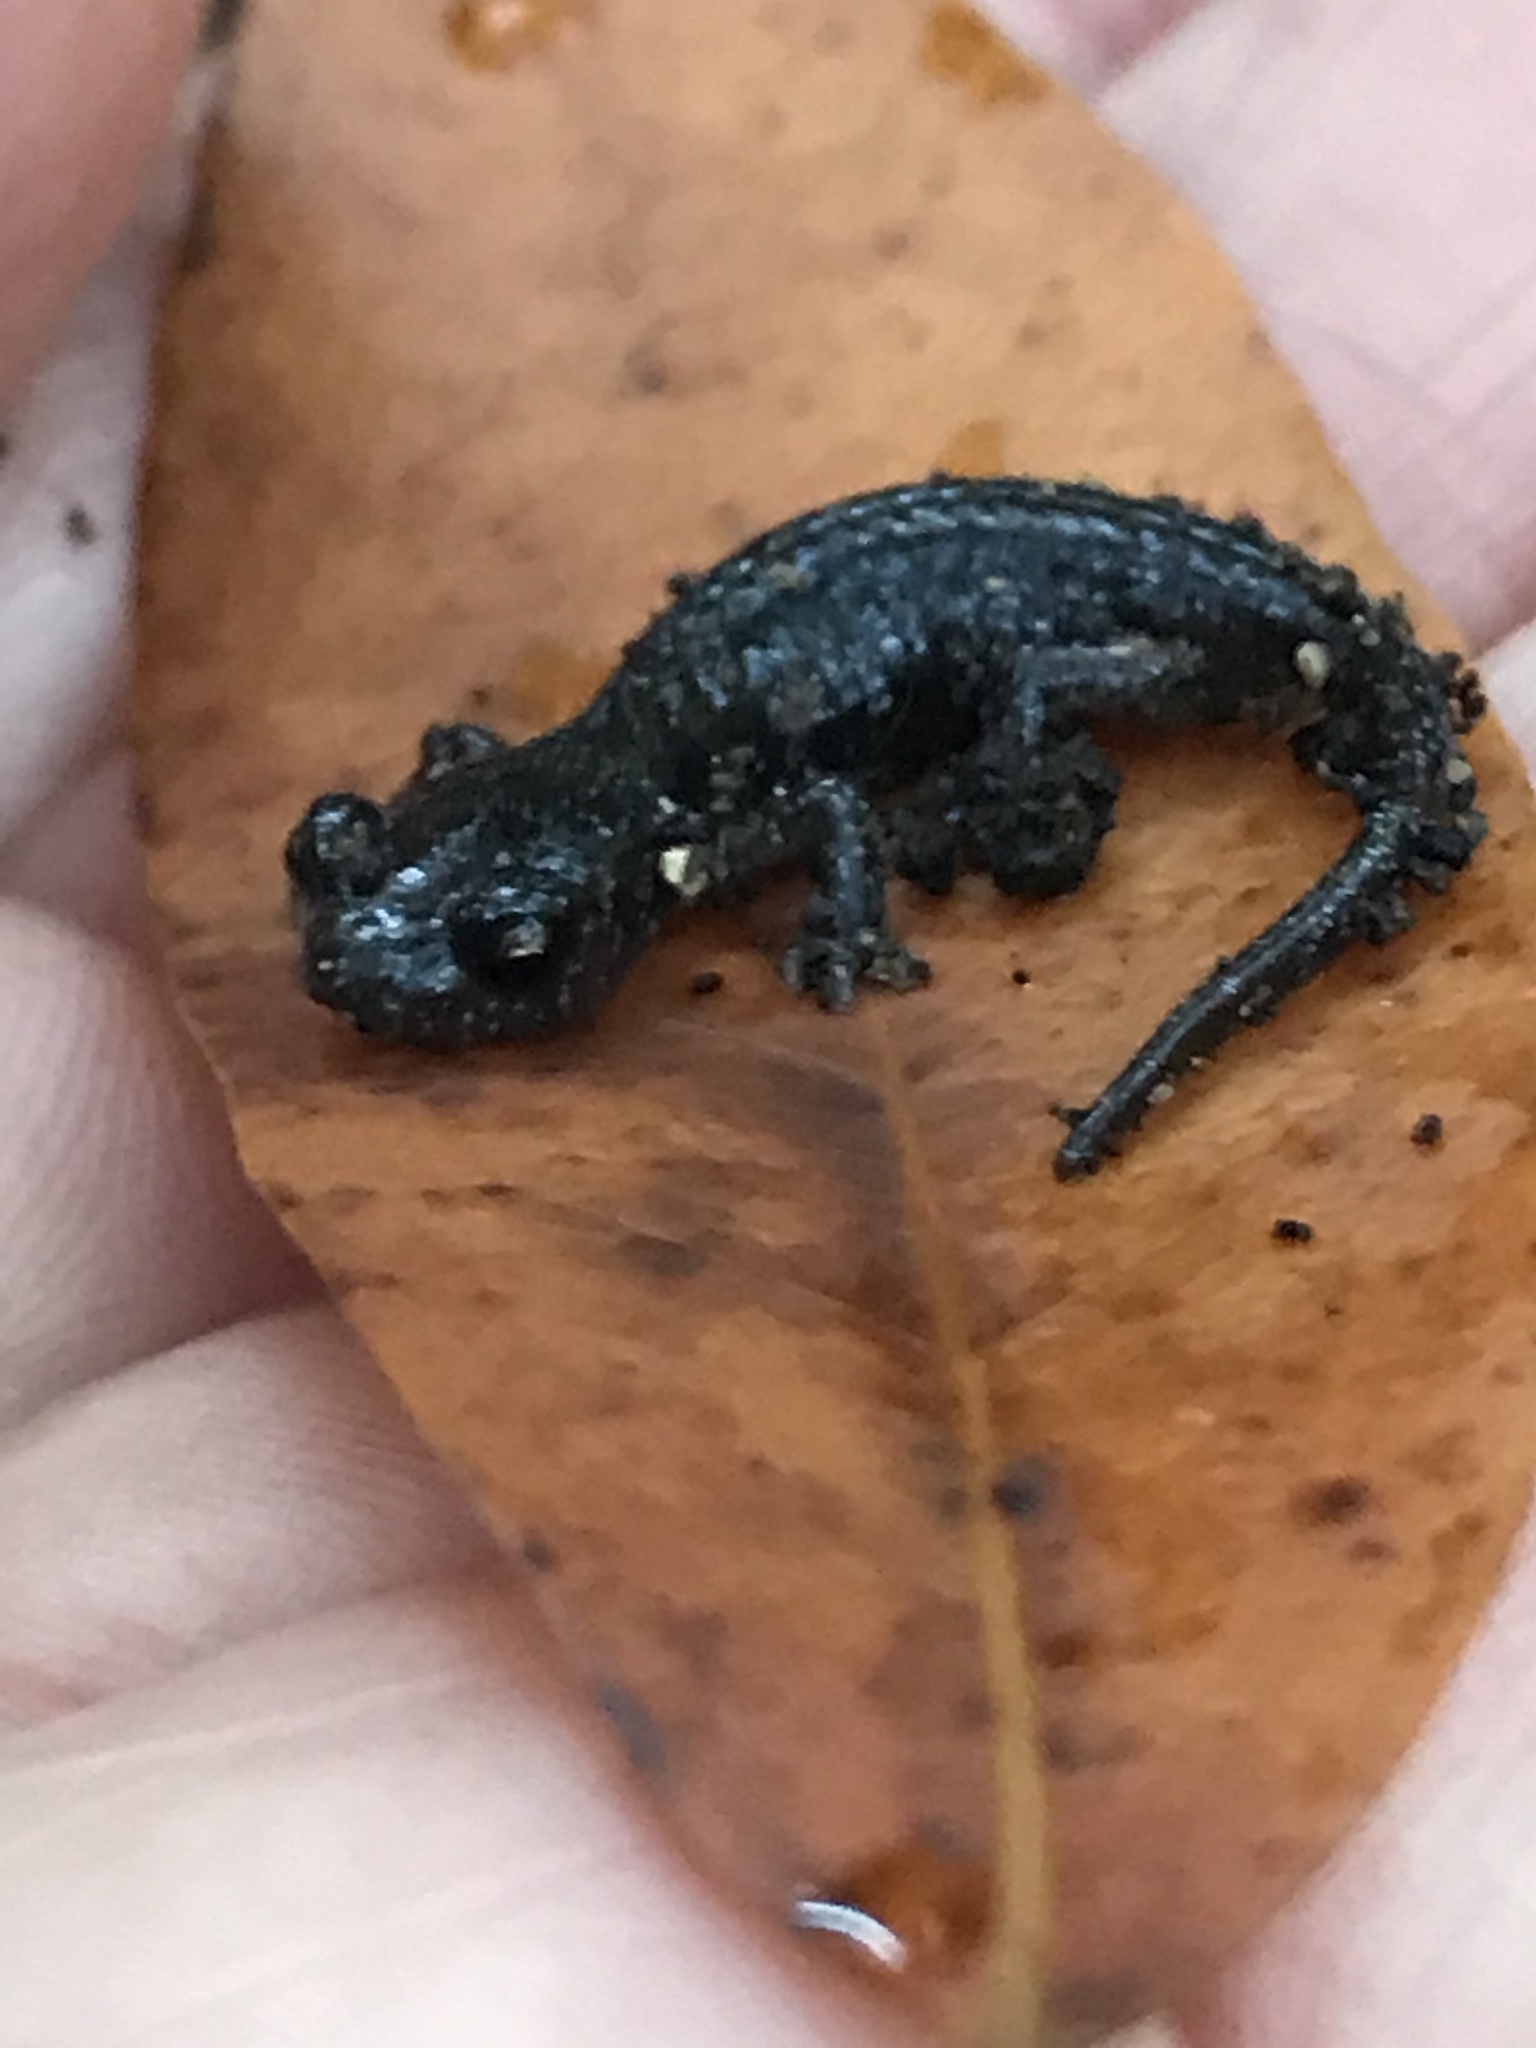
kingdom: Animalia
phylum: Chordata
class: Amphibia
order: Caudata
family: Plethodontidae
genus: Aneides
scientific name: Aneides lugubris
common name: Arboreal salamander
